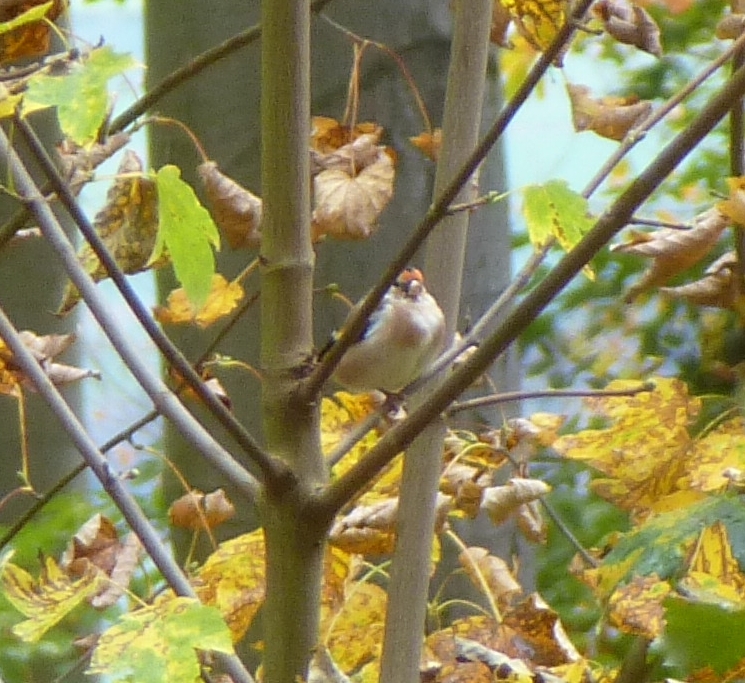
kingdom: Animalia
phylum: Chordata
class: Aves
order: Passeriformes
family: Fringillidae
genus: Carduelis
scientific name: Carduelis carduelis
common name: European goldfinch
